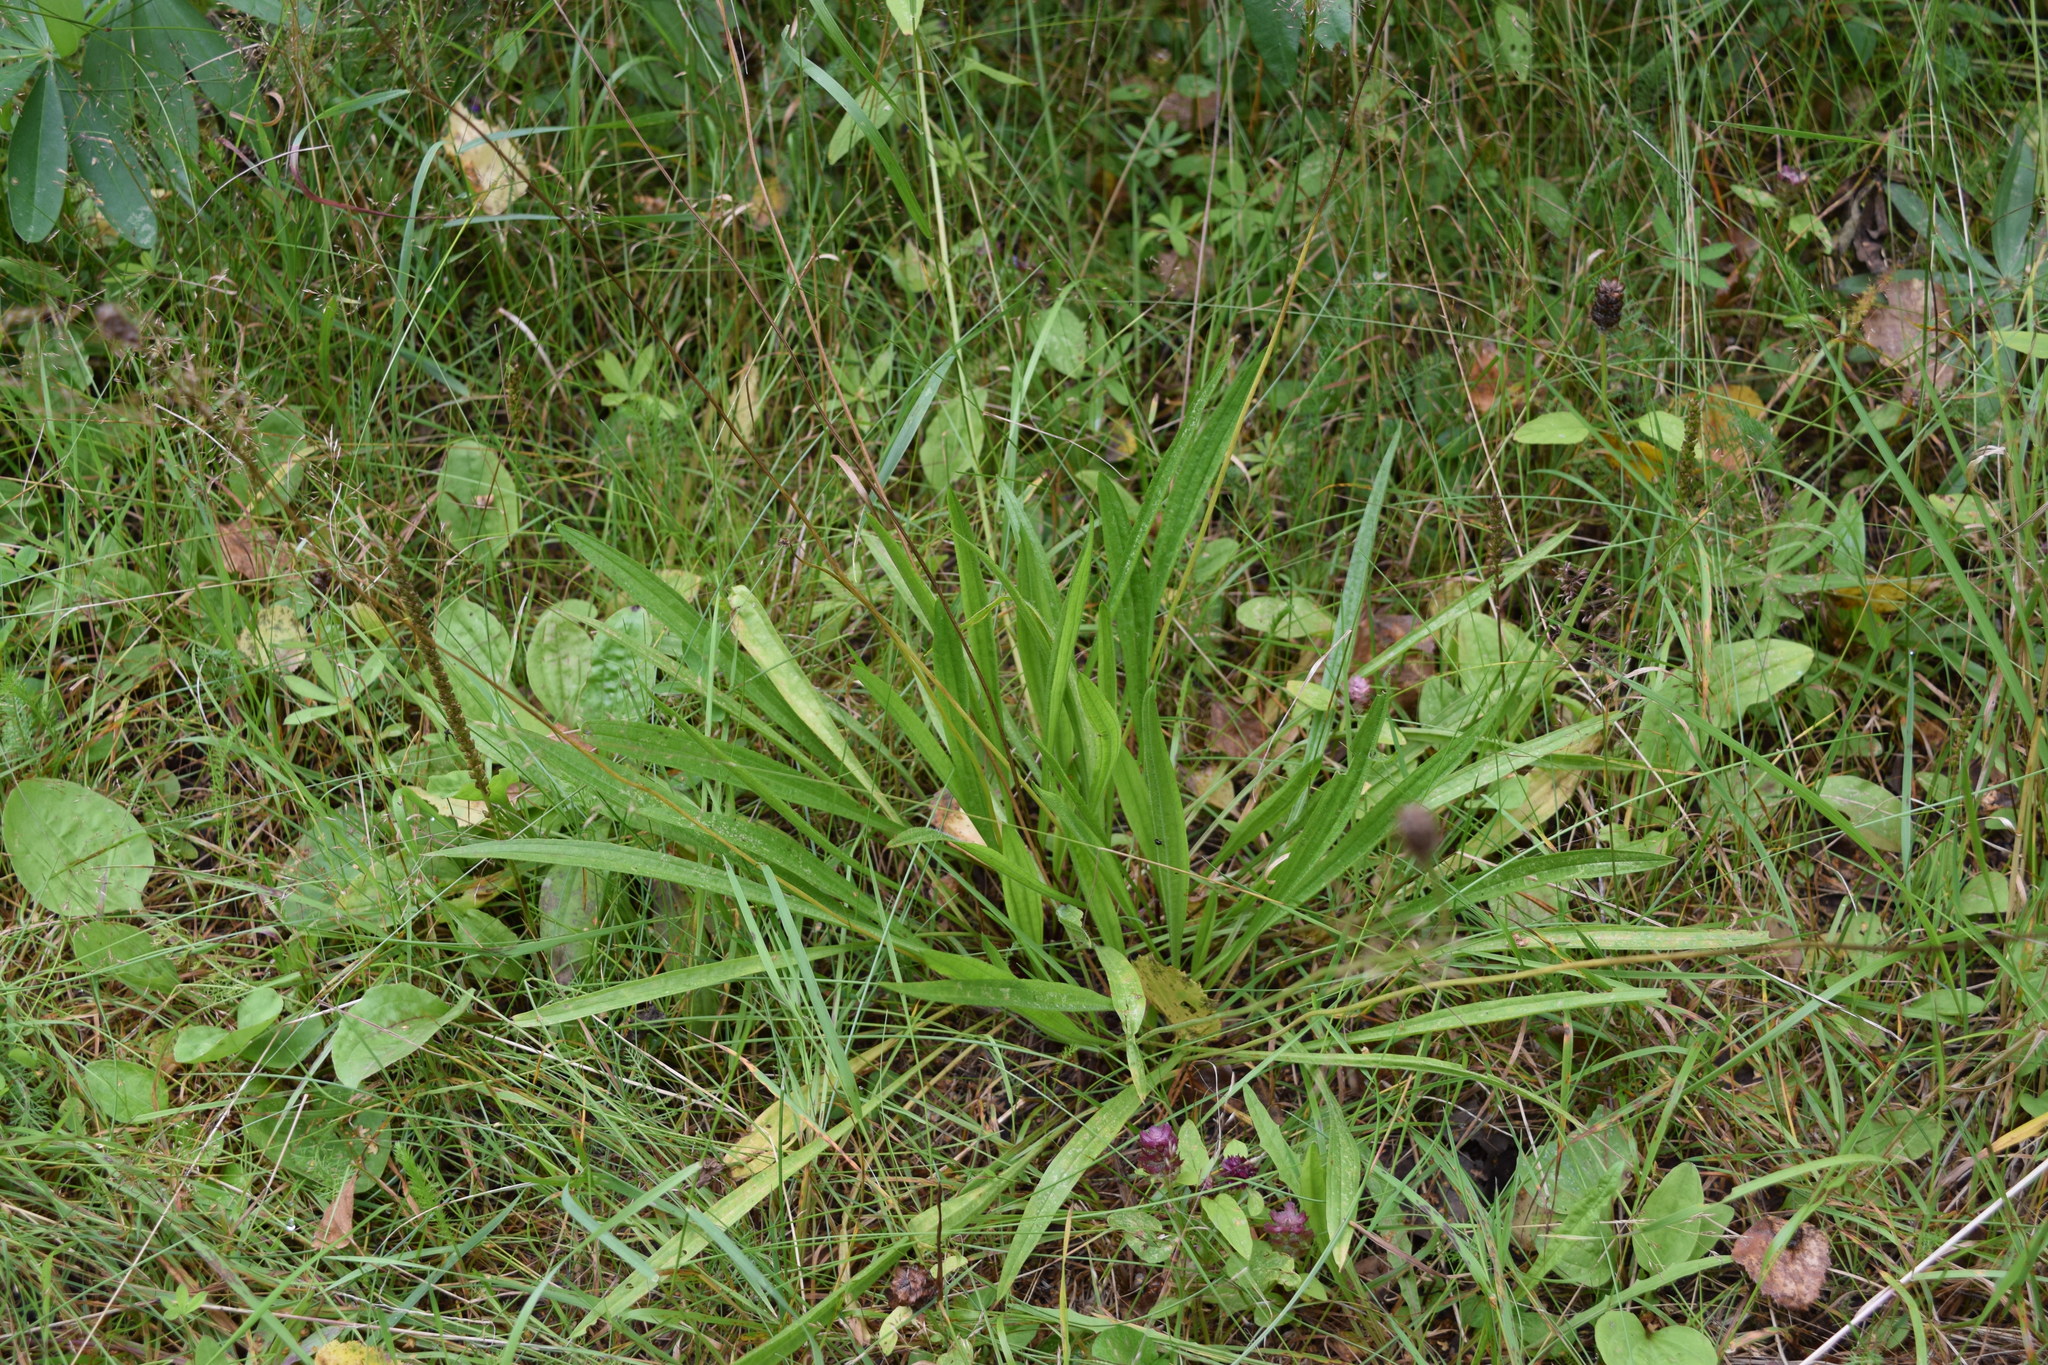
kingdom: Plantae
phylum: Tracheophyta
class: Magnoliopsida
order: Lamiales
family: Plantaginaceae
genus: Plantago
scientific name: Plantago lanceolata
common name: Ribwort plantain
